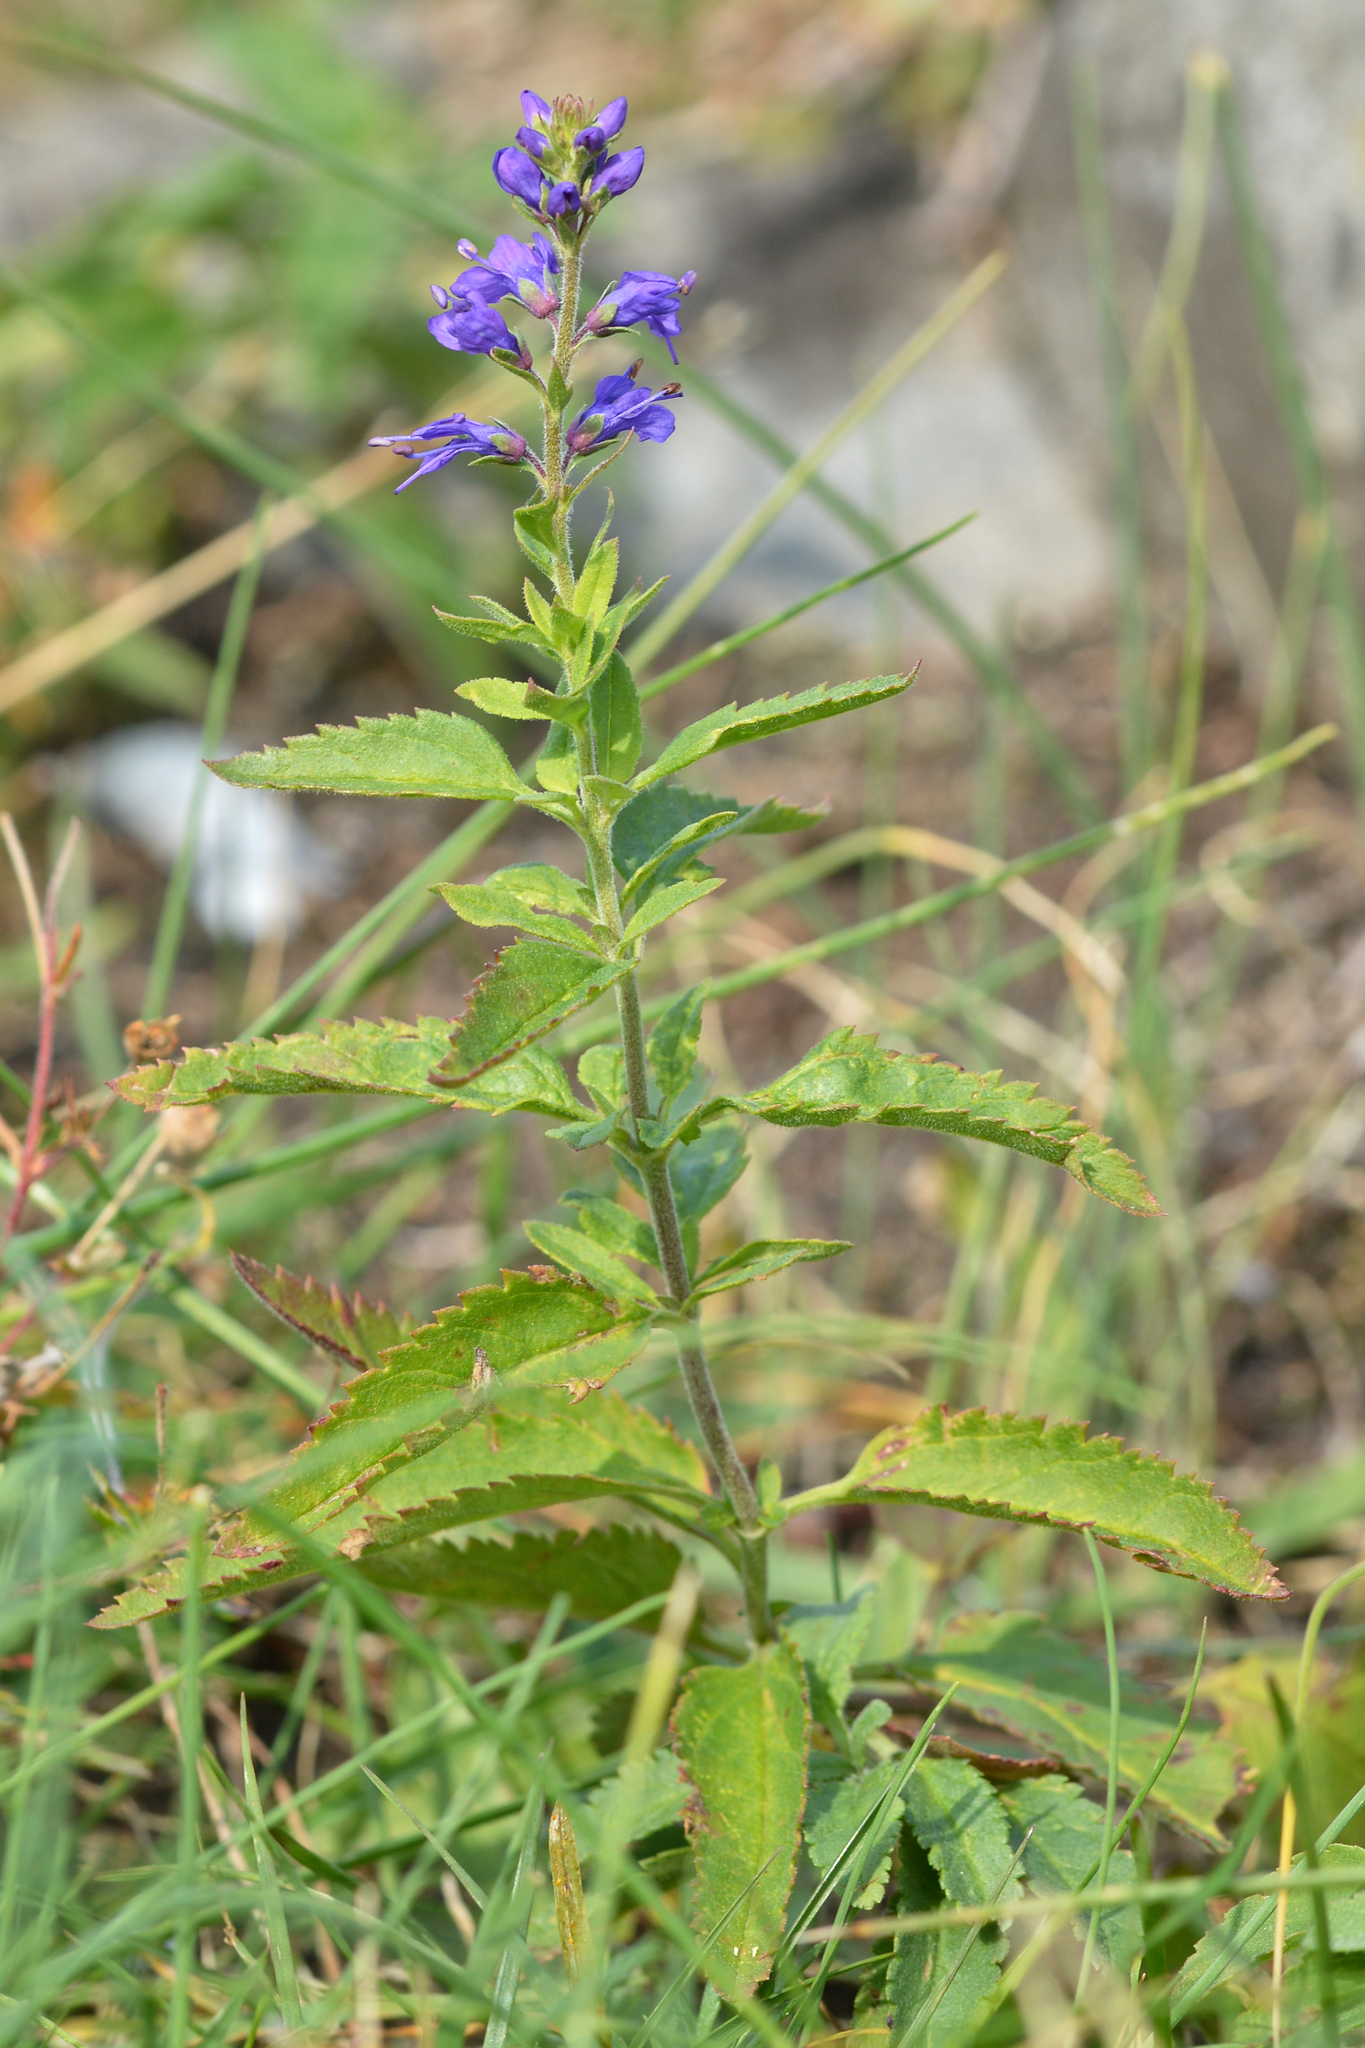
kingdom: Plantae
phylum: Tracheophyta
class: Magnoliopsida
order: Lamiales
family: Plantaginaceae
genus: Veronica
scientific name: Veronica longifolia
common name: Garden speedwell
